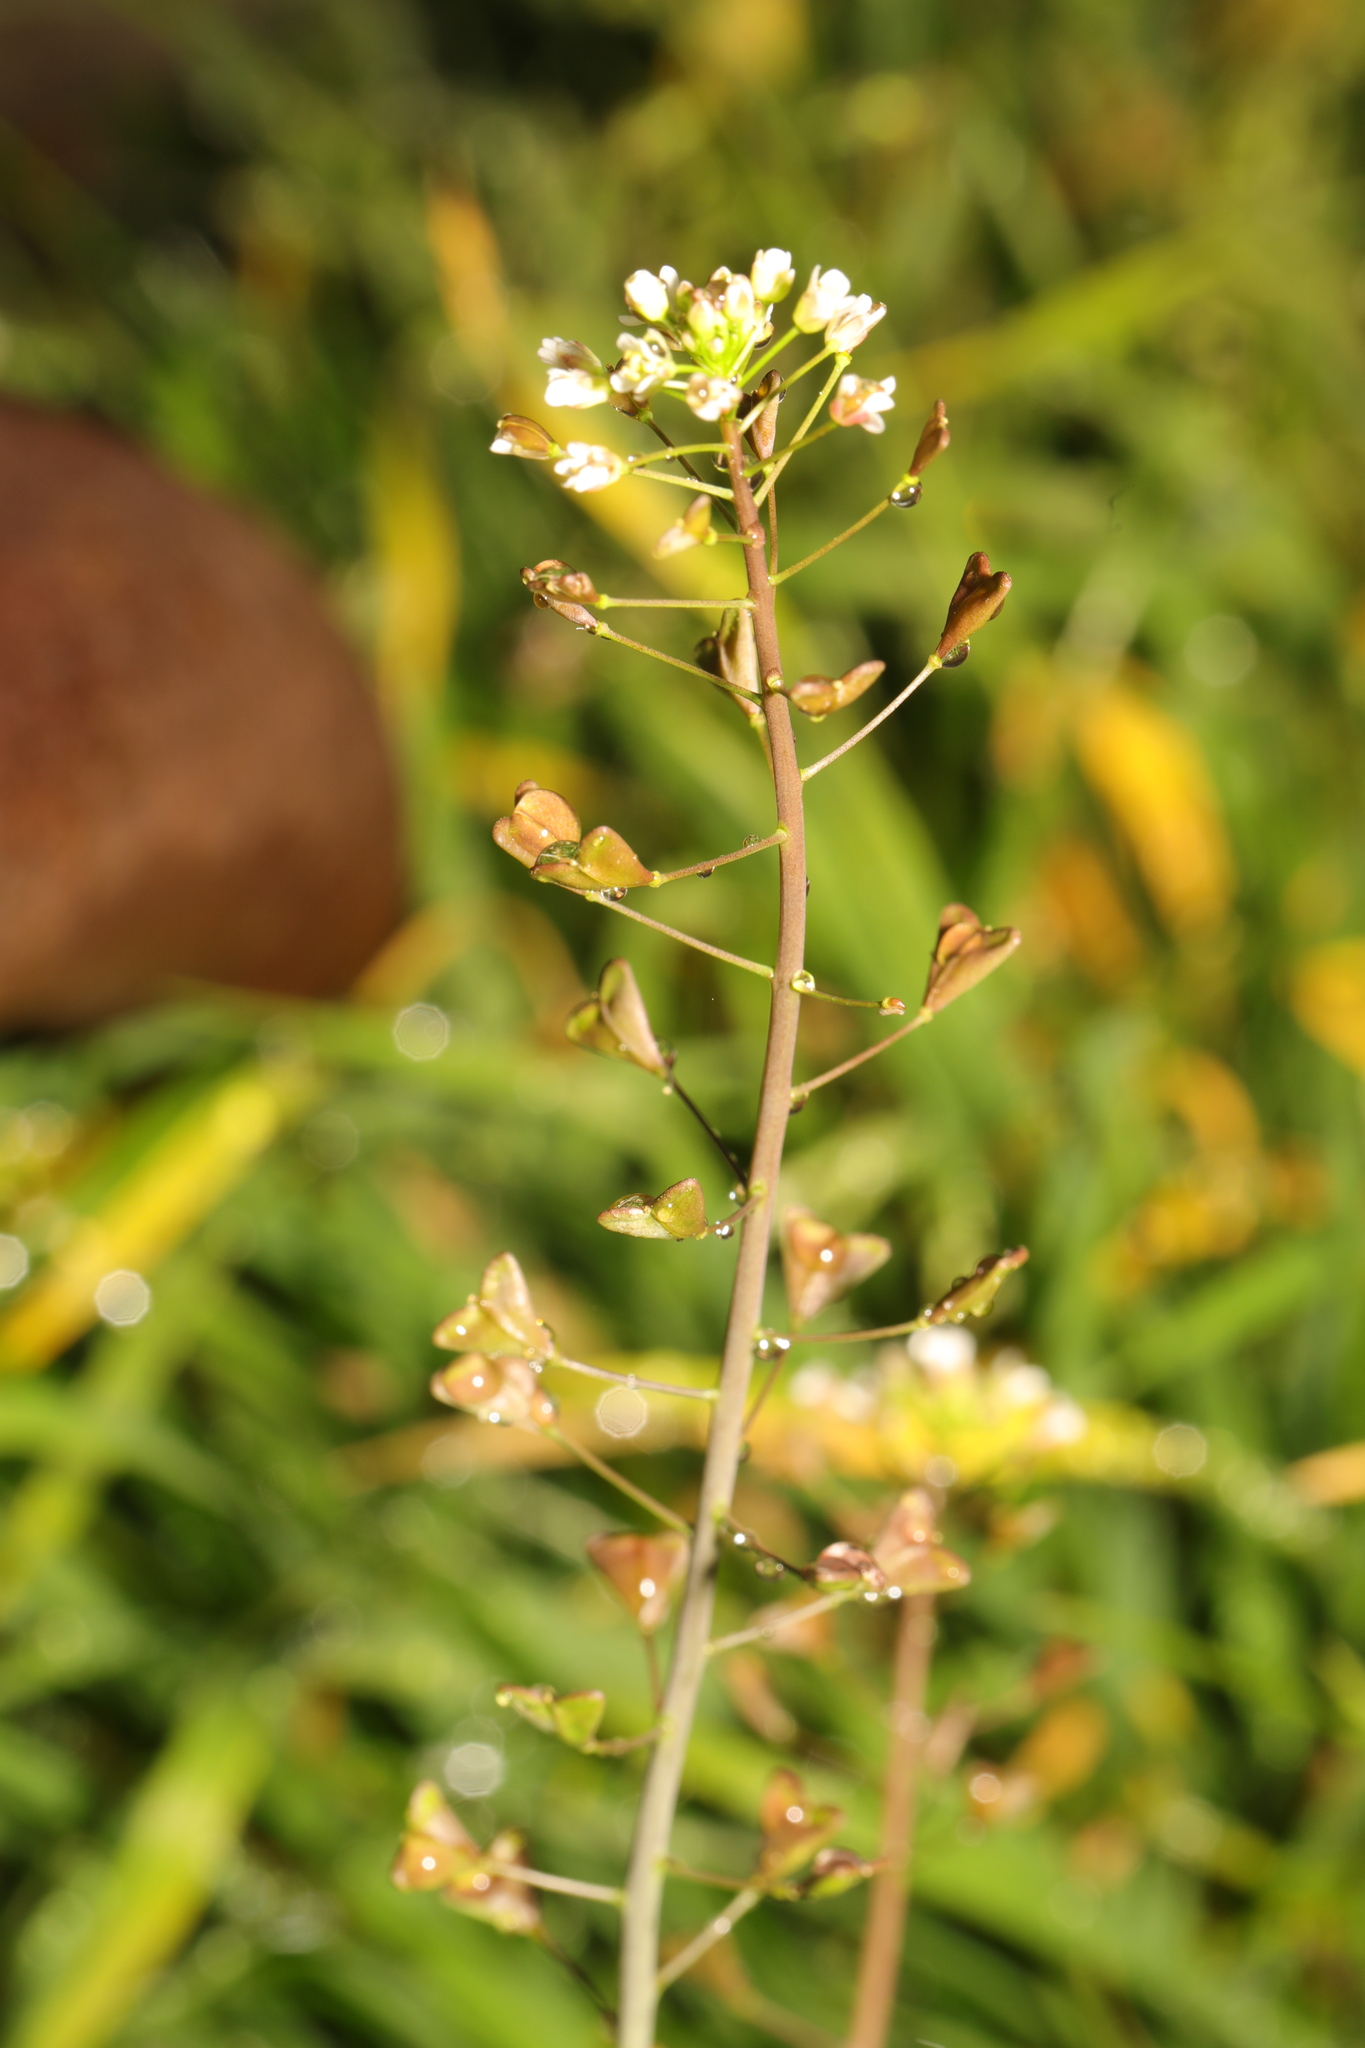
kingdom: Plantae
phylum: Tracheophyta
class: Magnoliopsida
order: Brassicales
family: Brassicaceae
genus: Capsella
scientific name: Capsella bursa-pastoris
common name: Shepherd's purse
